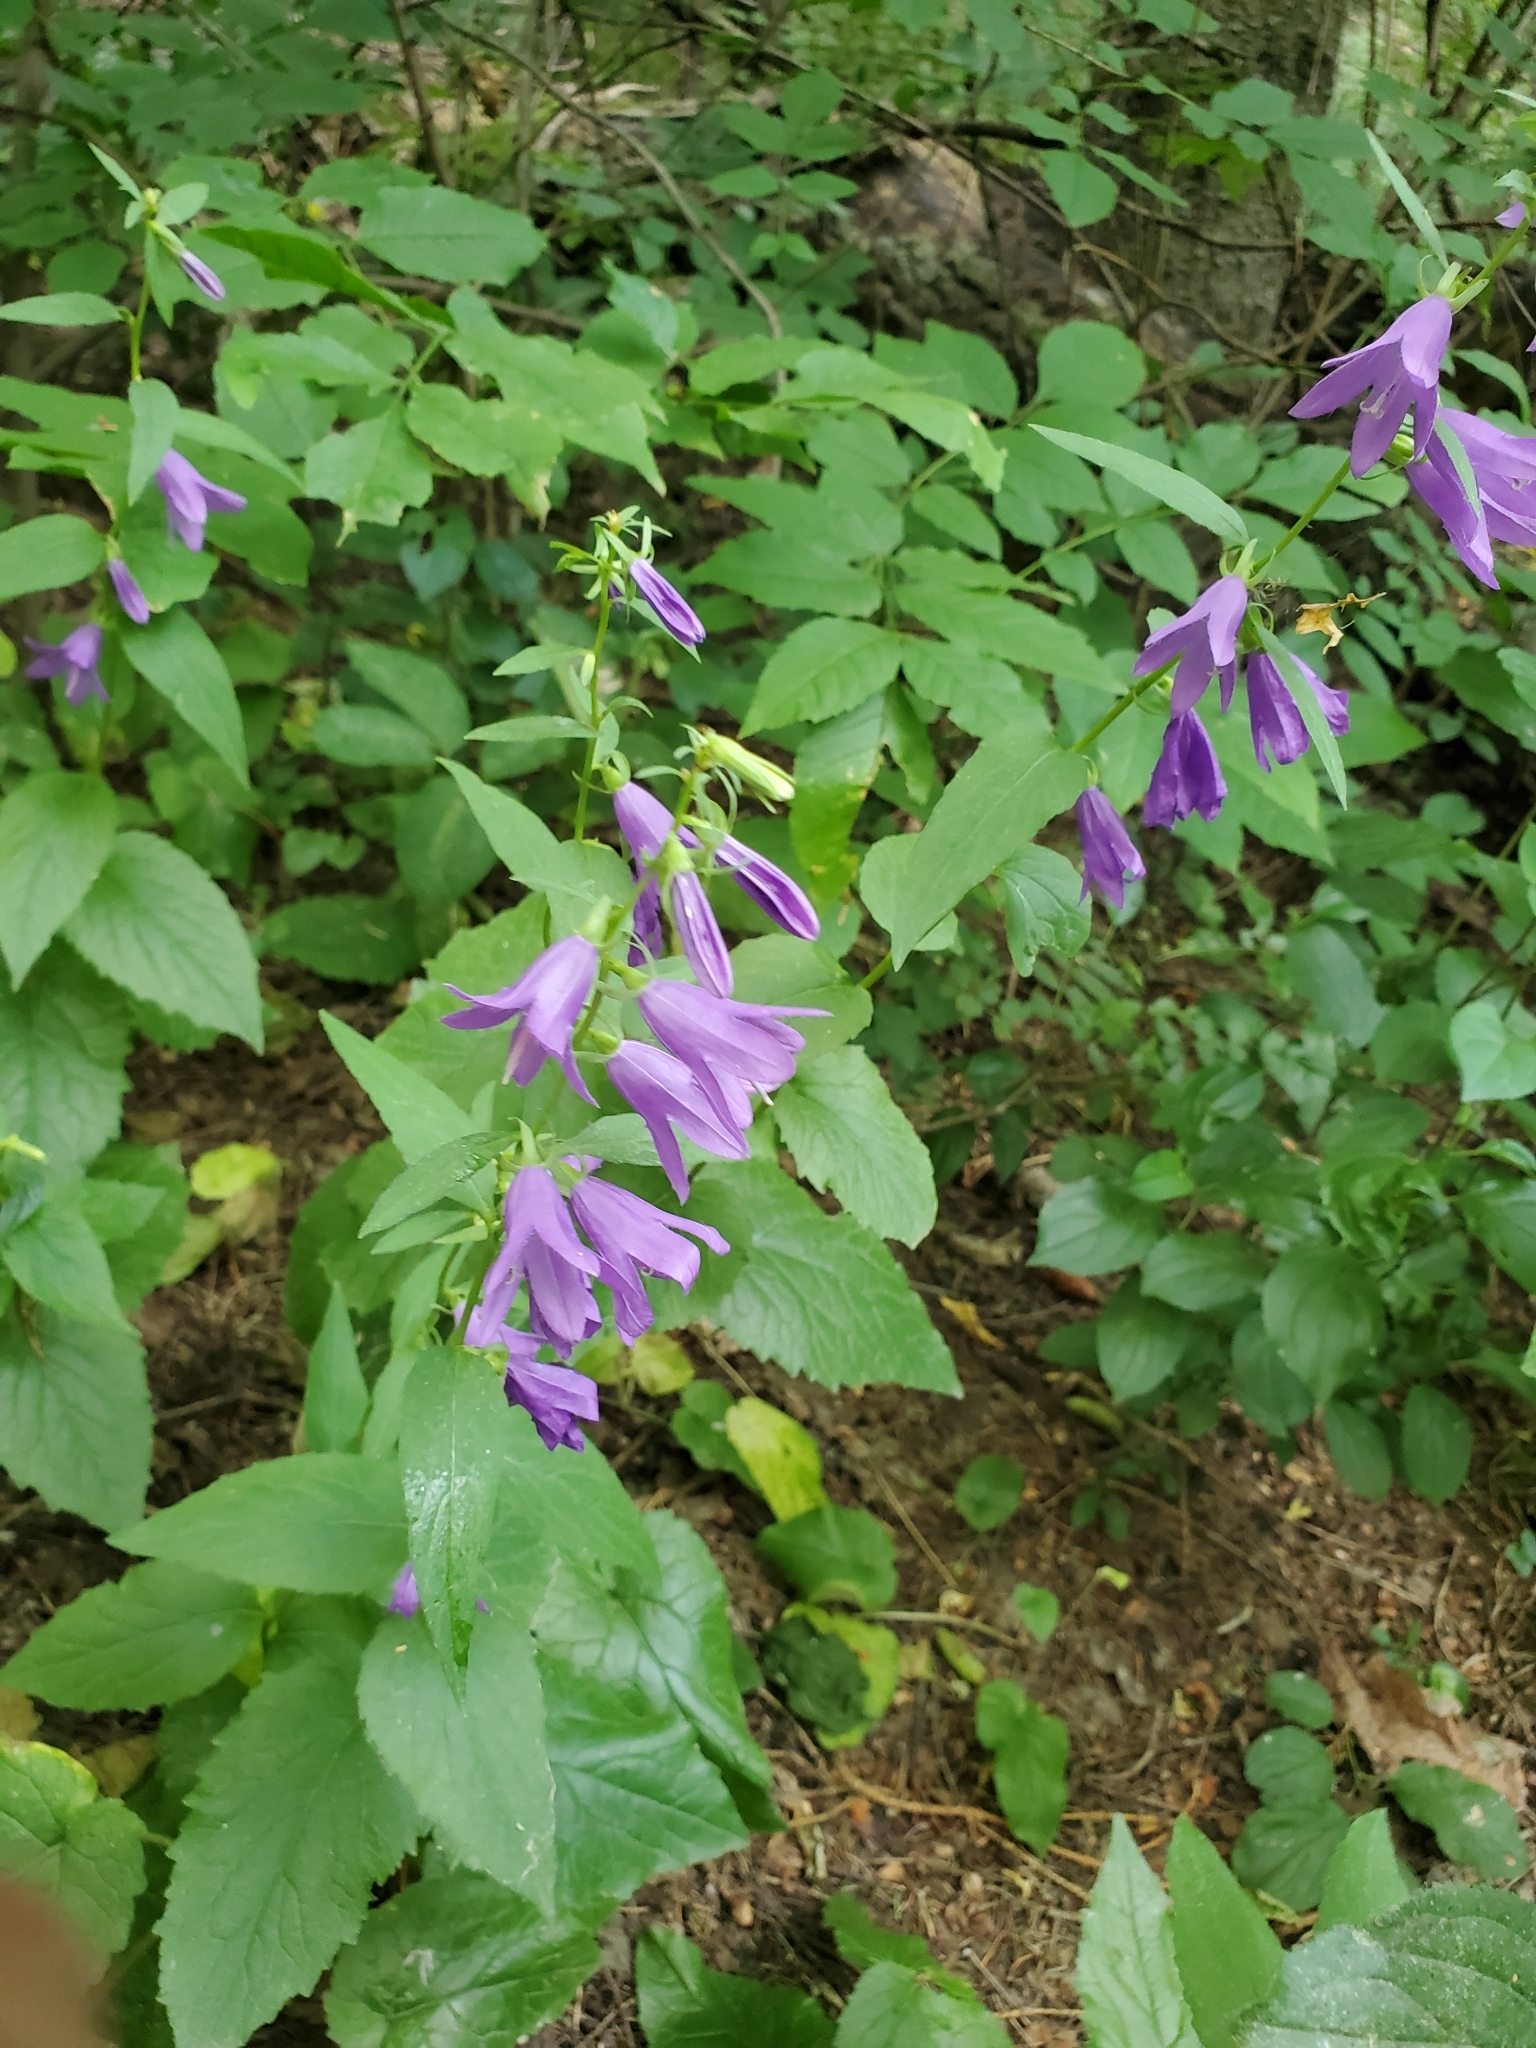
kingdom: Plantae
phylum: Tracheophyta
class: Magnoliopsida
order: Asterales
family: Campanulaceae
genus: Campanula
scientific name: Campanula rapunculoides
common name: Creeping bellflower
